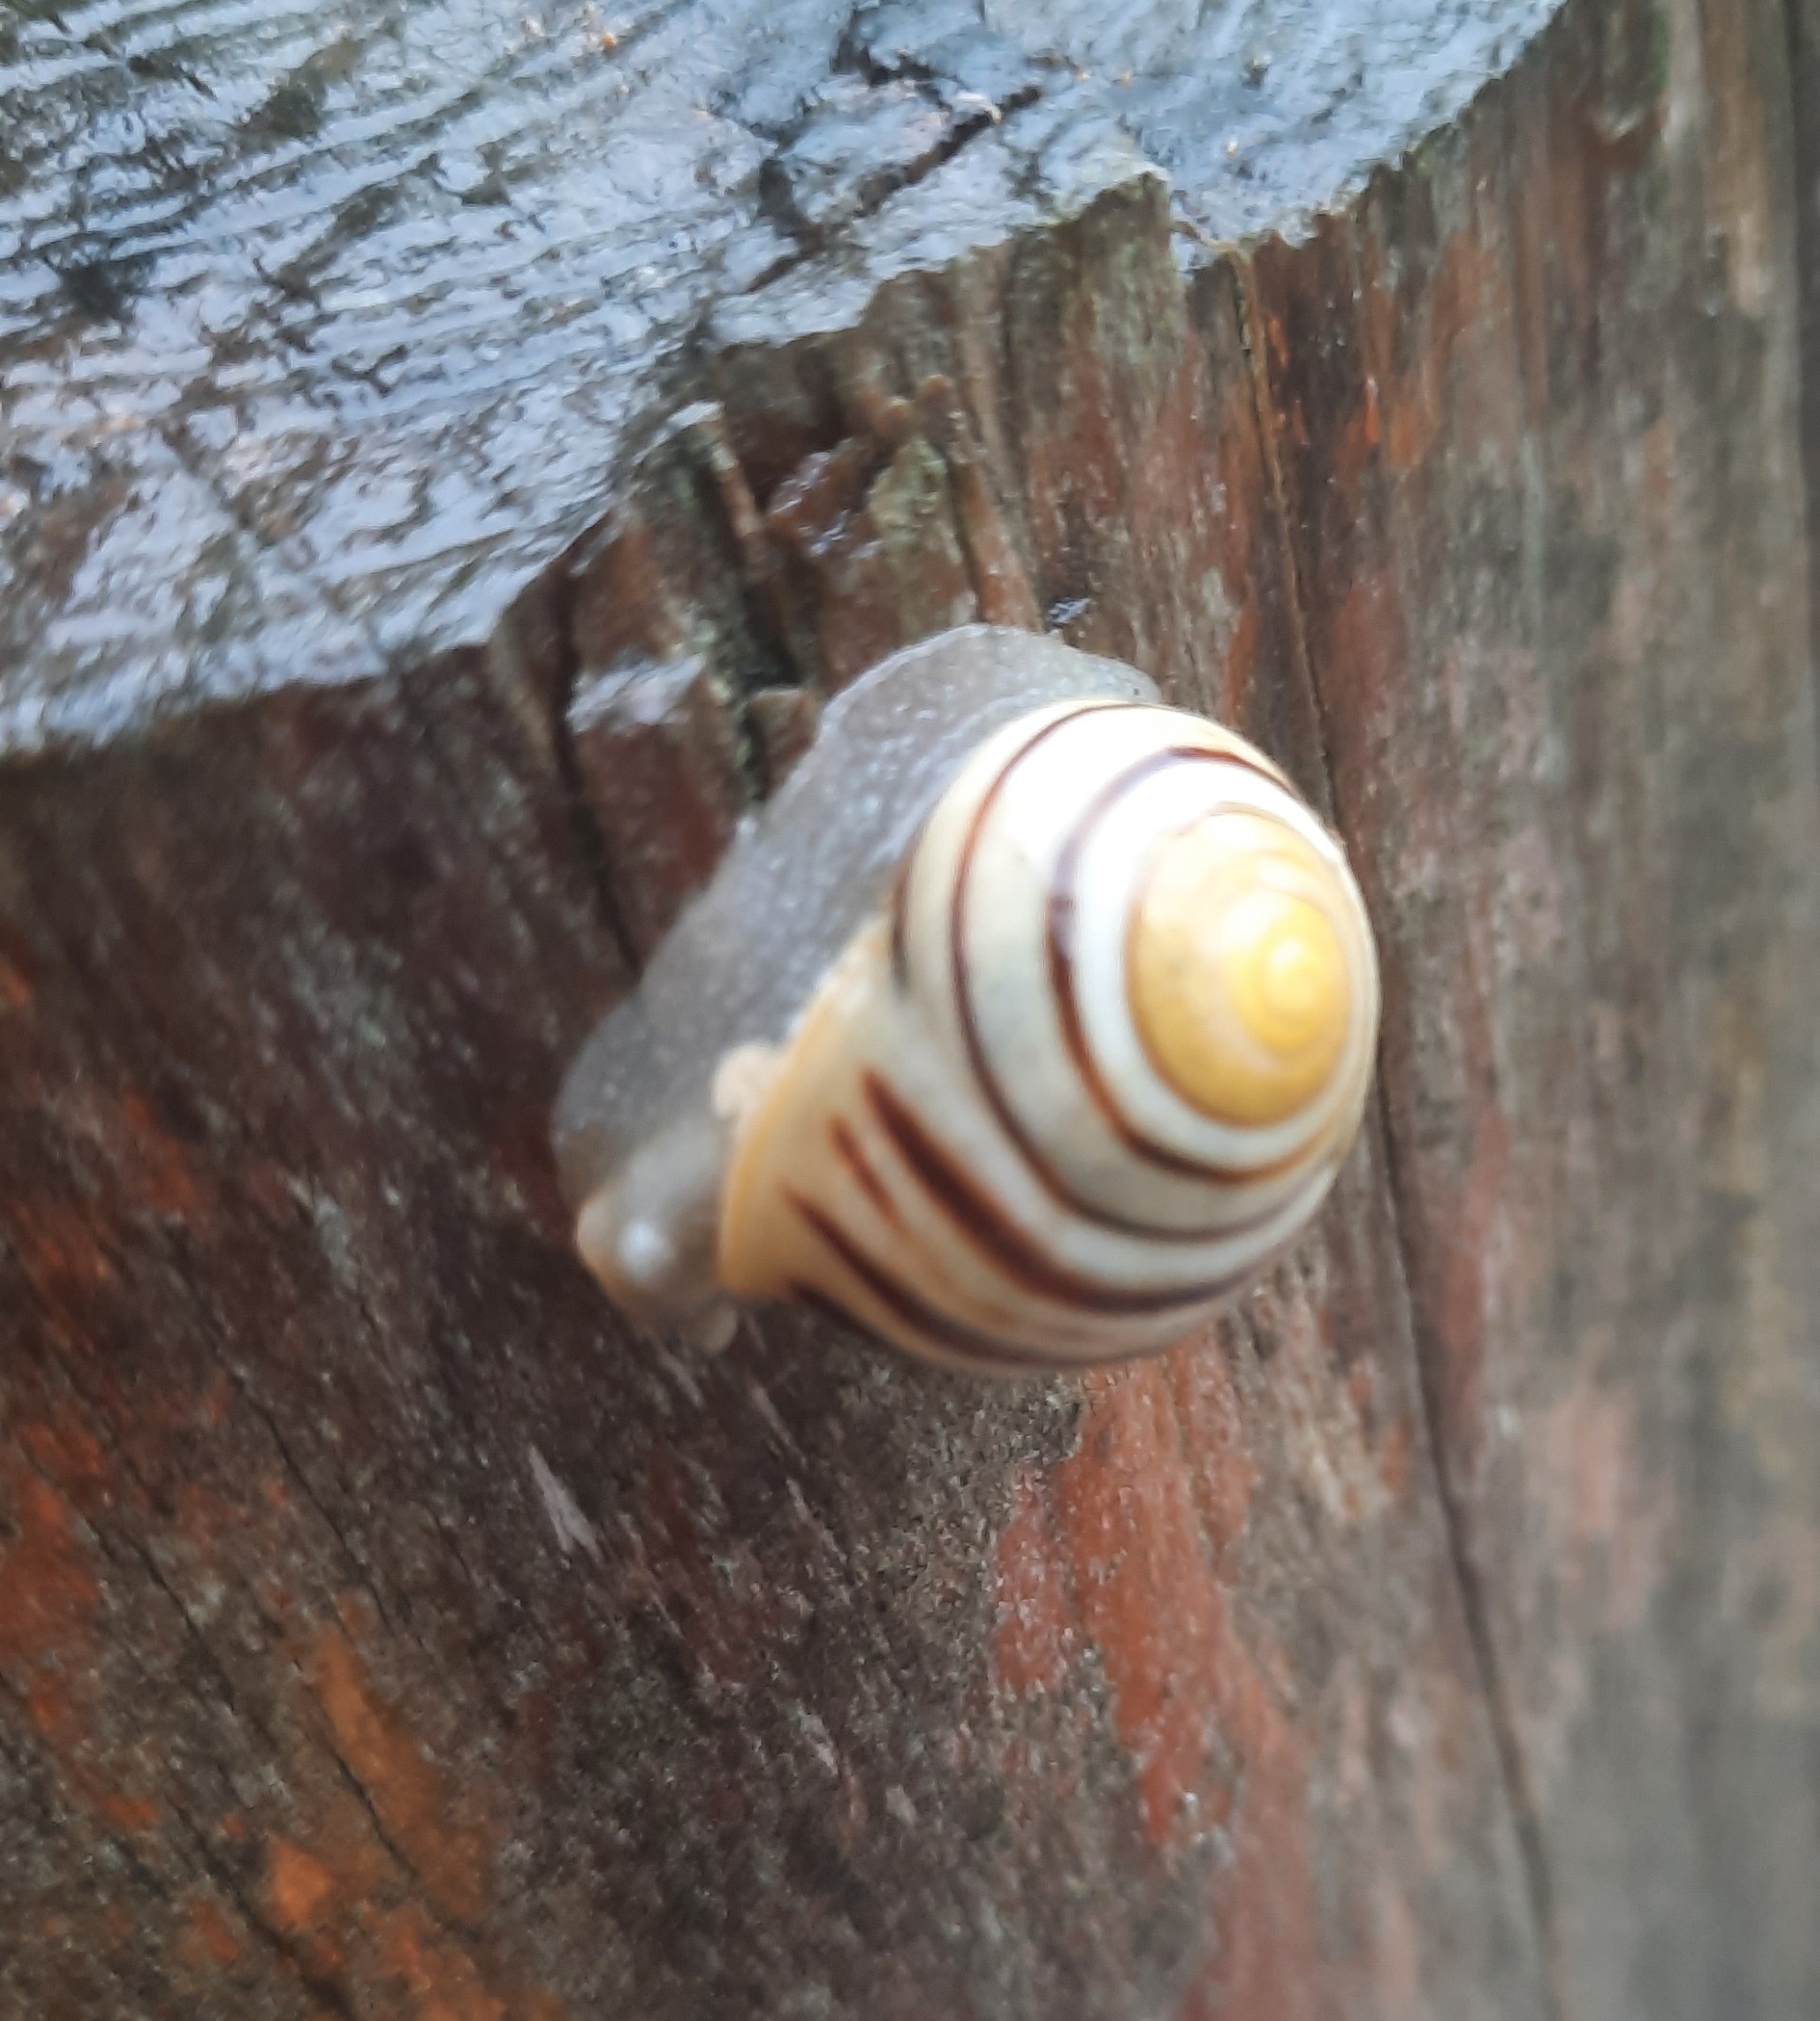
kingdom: Animalia
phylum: Mollusca
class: Gastropoda
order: Stylommatophora
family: Helicidae
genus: Cepaea
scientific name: Cepaea hortensis
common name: White-lip gardensnail
